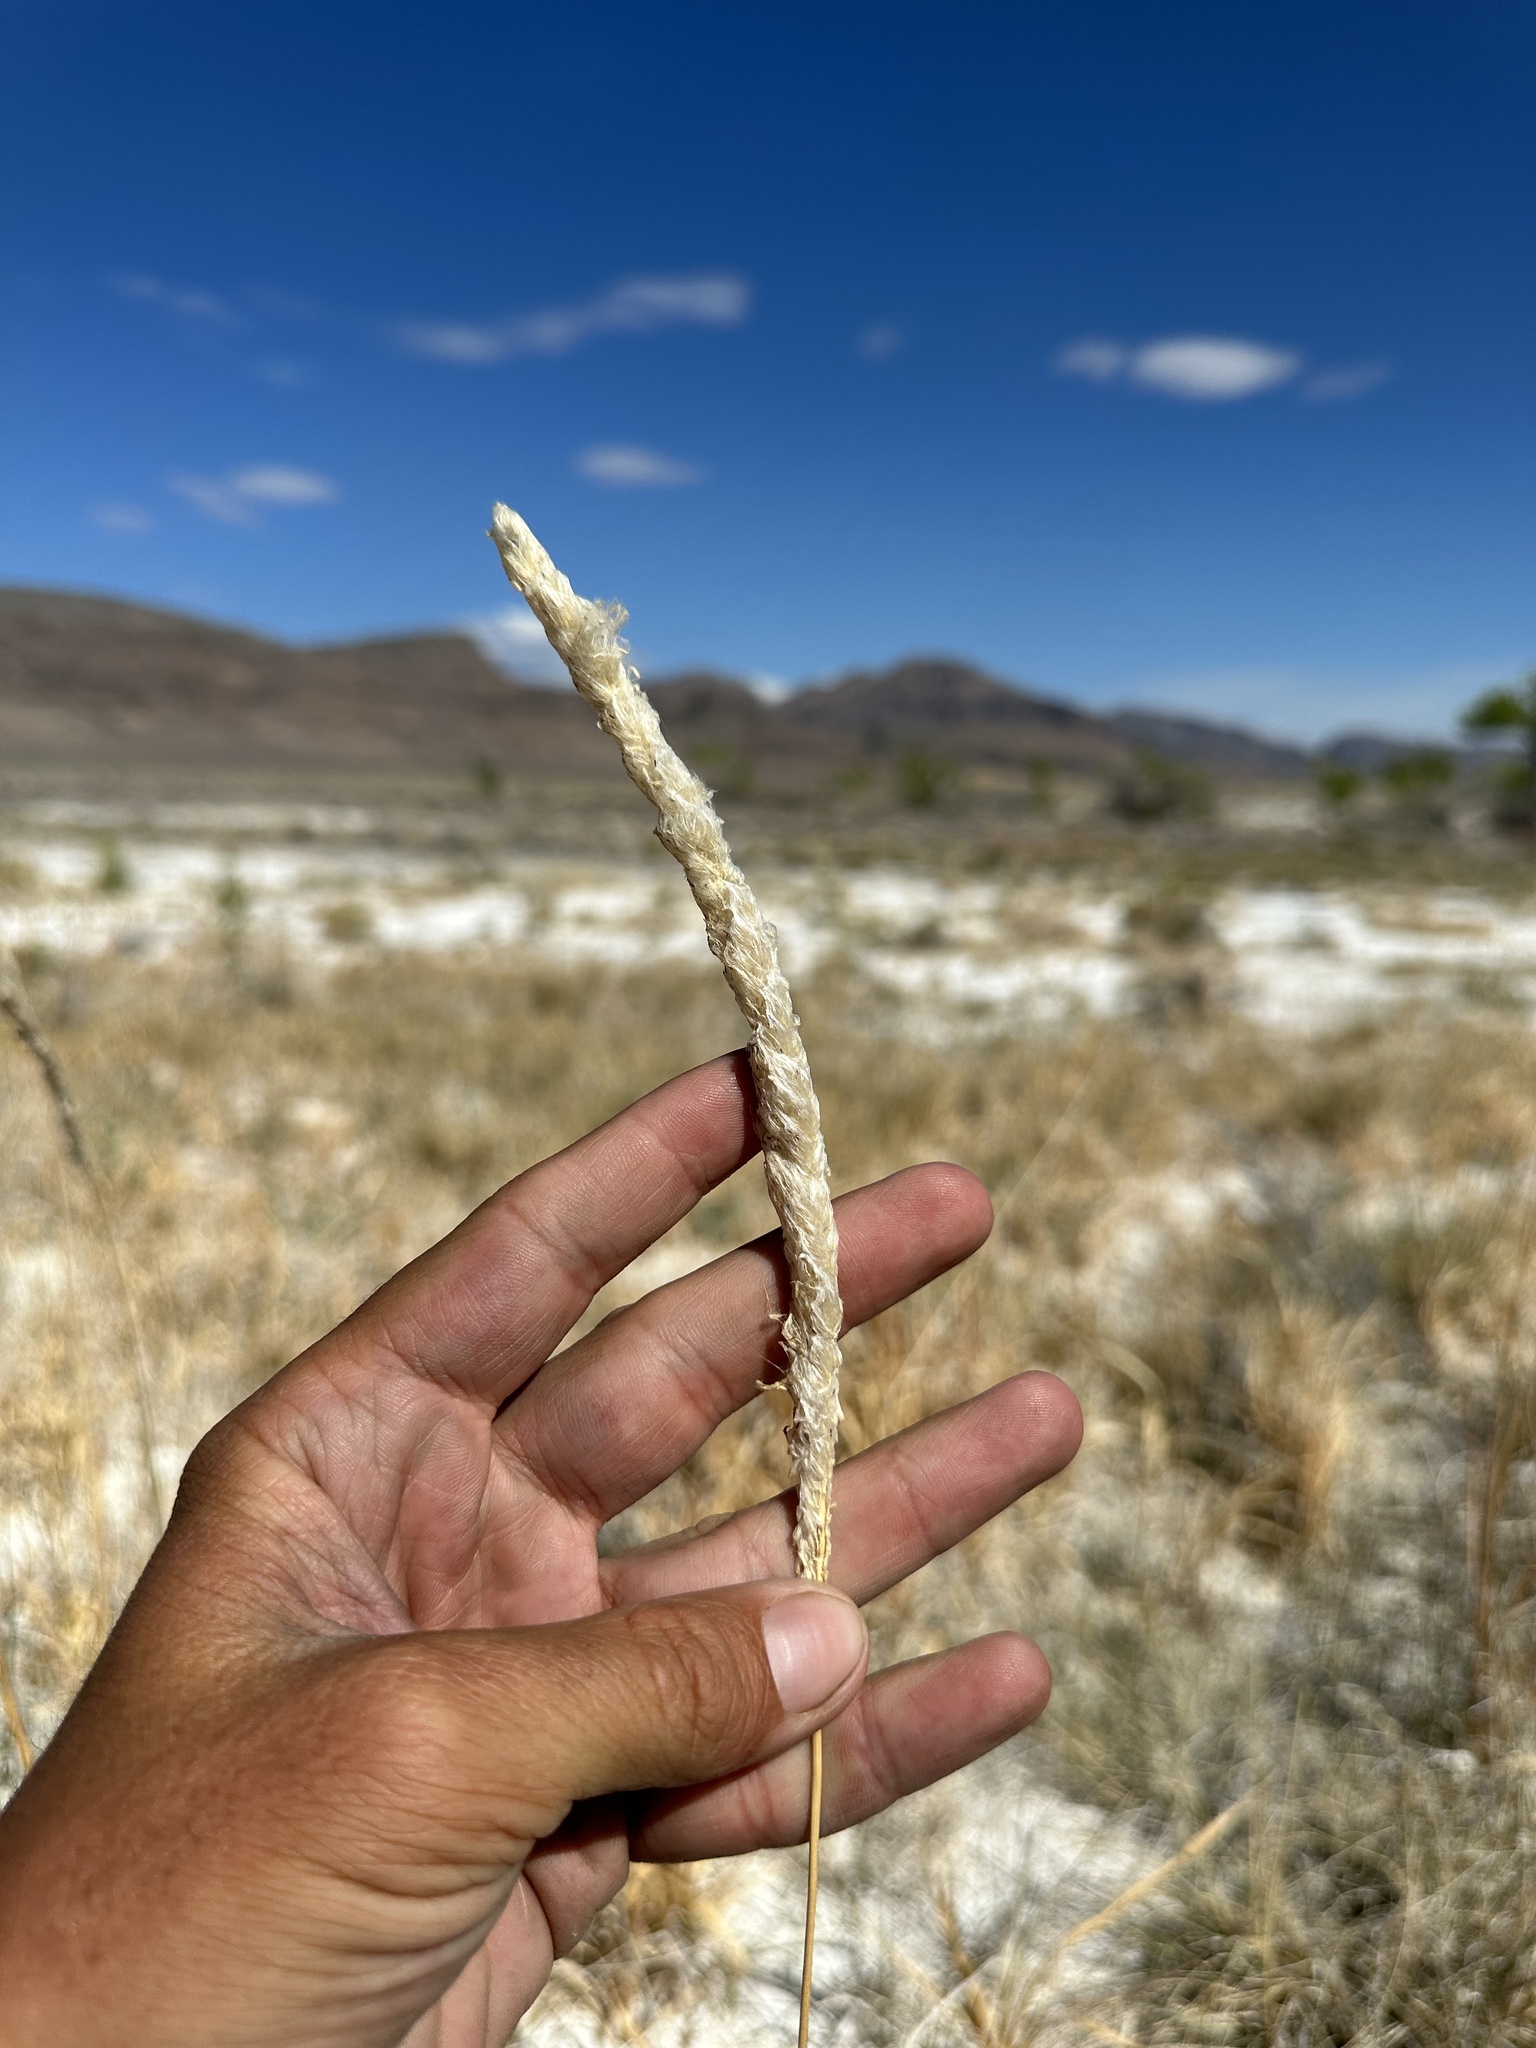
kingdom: Plantae
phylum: Tracheophyta
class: Liliopsida
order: Poales
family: Poaceae
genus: Imperata
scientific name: Imperata brevifolia
